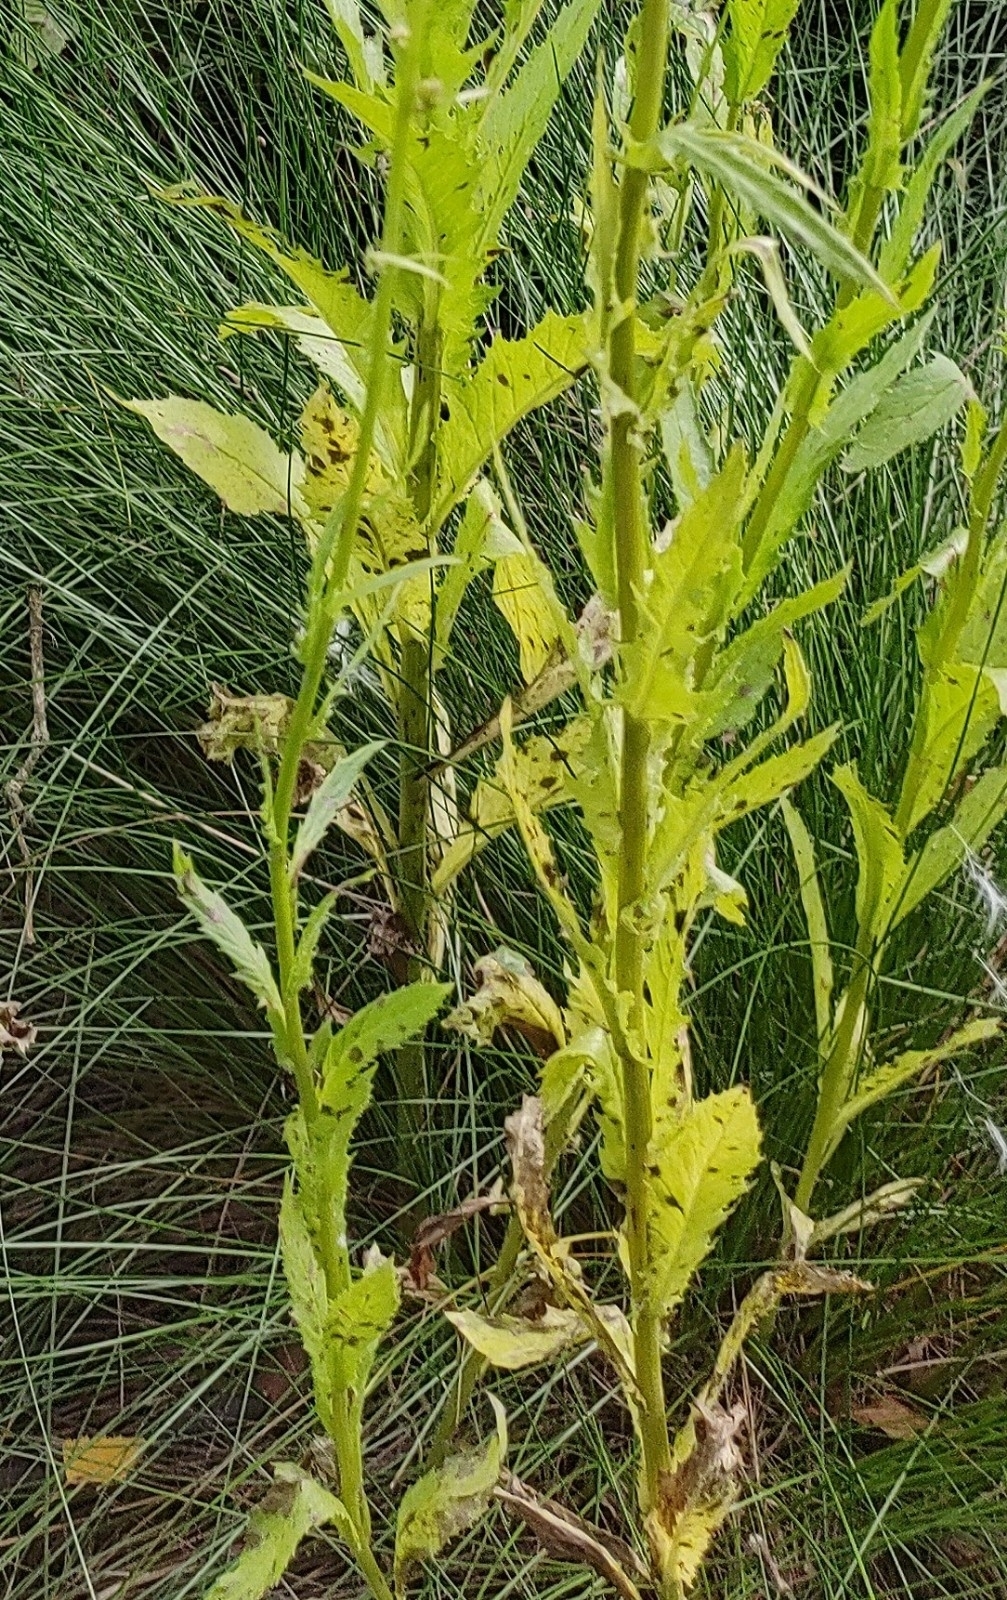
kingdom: Plantae
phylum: Tracheophyta
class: Magnoliopsida
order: Asterales
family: Asteraceae
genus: Erechtites
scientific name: Erechtites hieraciifolius
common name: American burnweed
